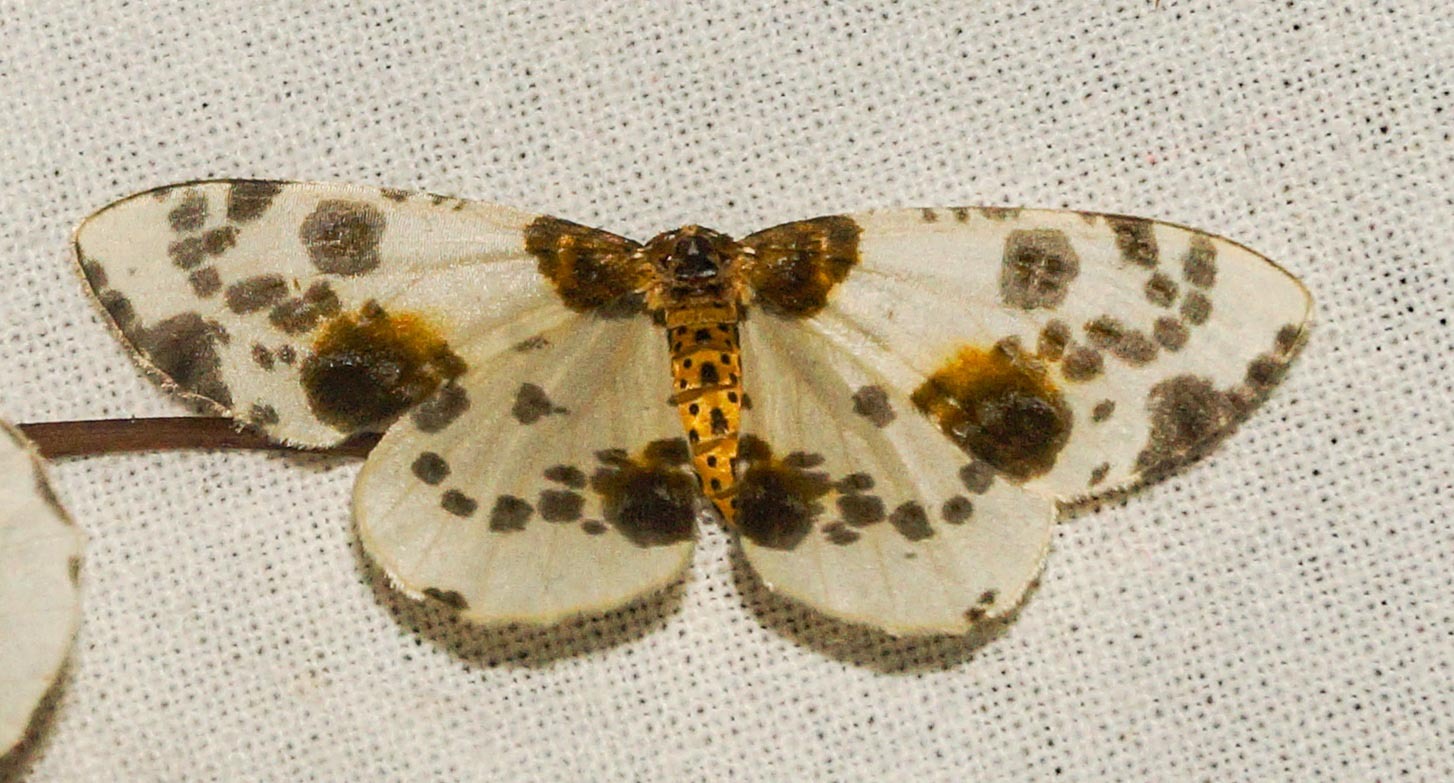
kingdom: Animalia
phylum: Arthropoda
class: Insecta
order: Lepidoptera
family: Geometridae
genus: Abraxas
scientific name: Abraxas sylvata
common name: Clouded magpie
